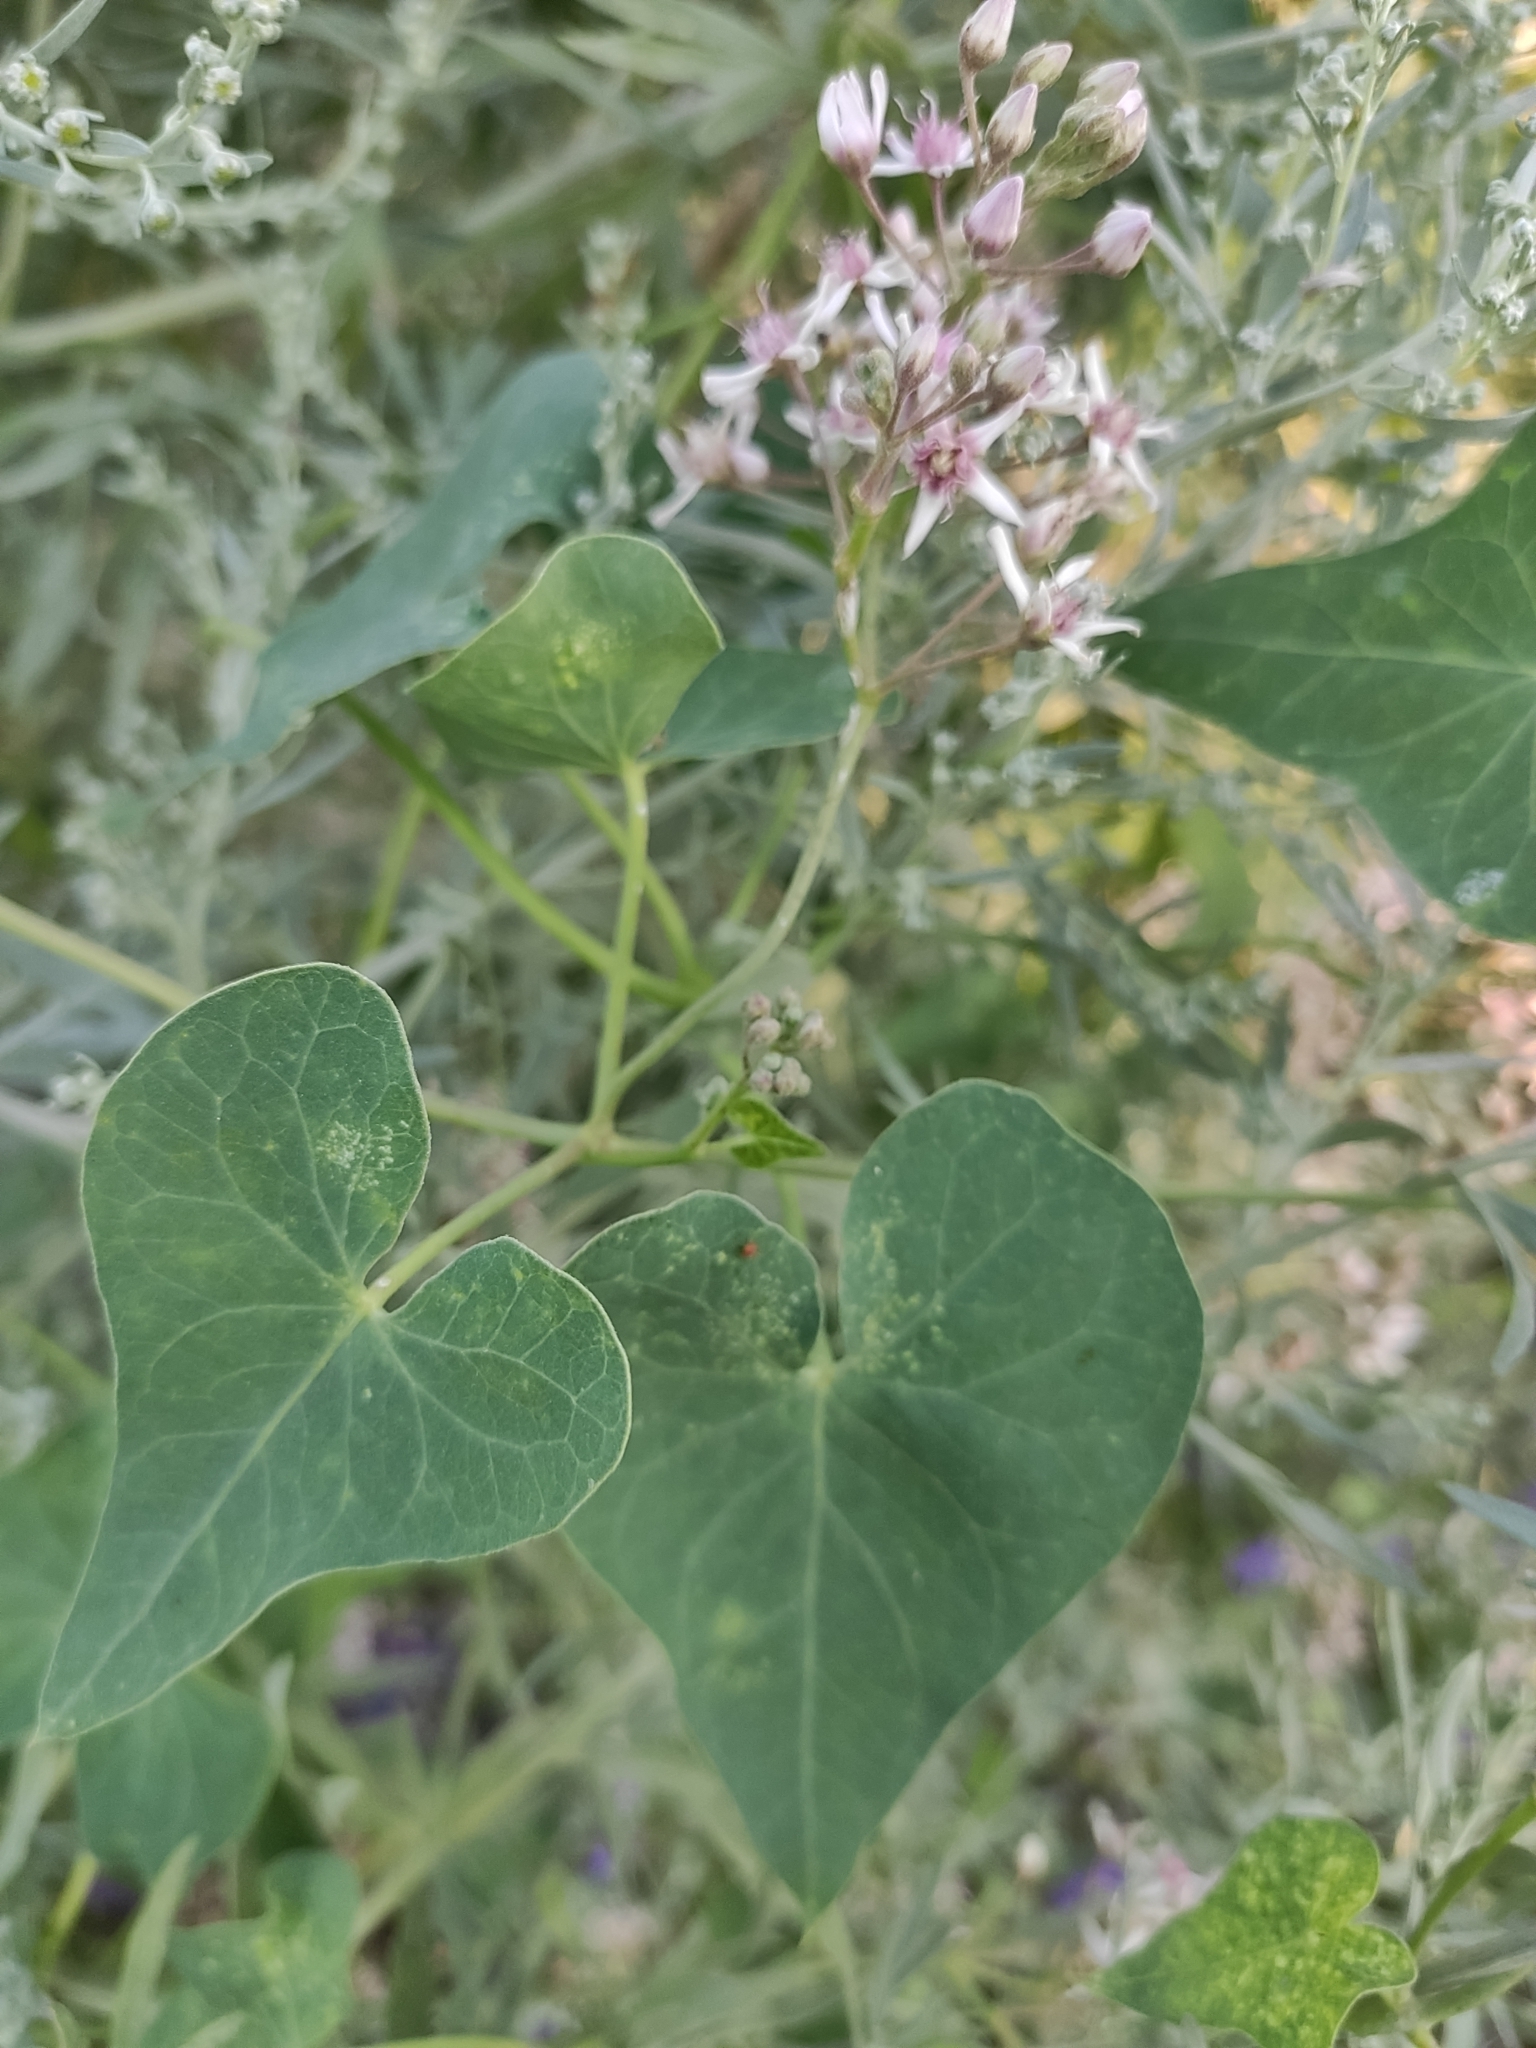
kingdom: Plantae
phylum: Tracheophyta
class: Magnoliopsida
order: Gentianales
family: Apocynaceae
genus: Cynanchum
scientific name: Cynanchum acutum
